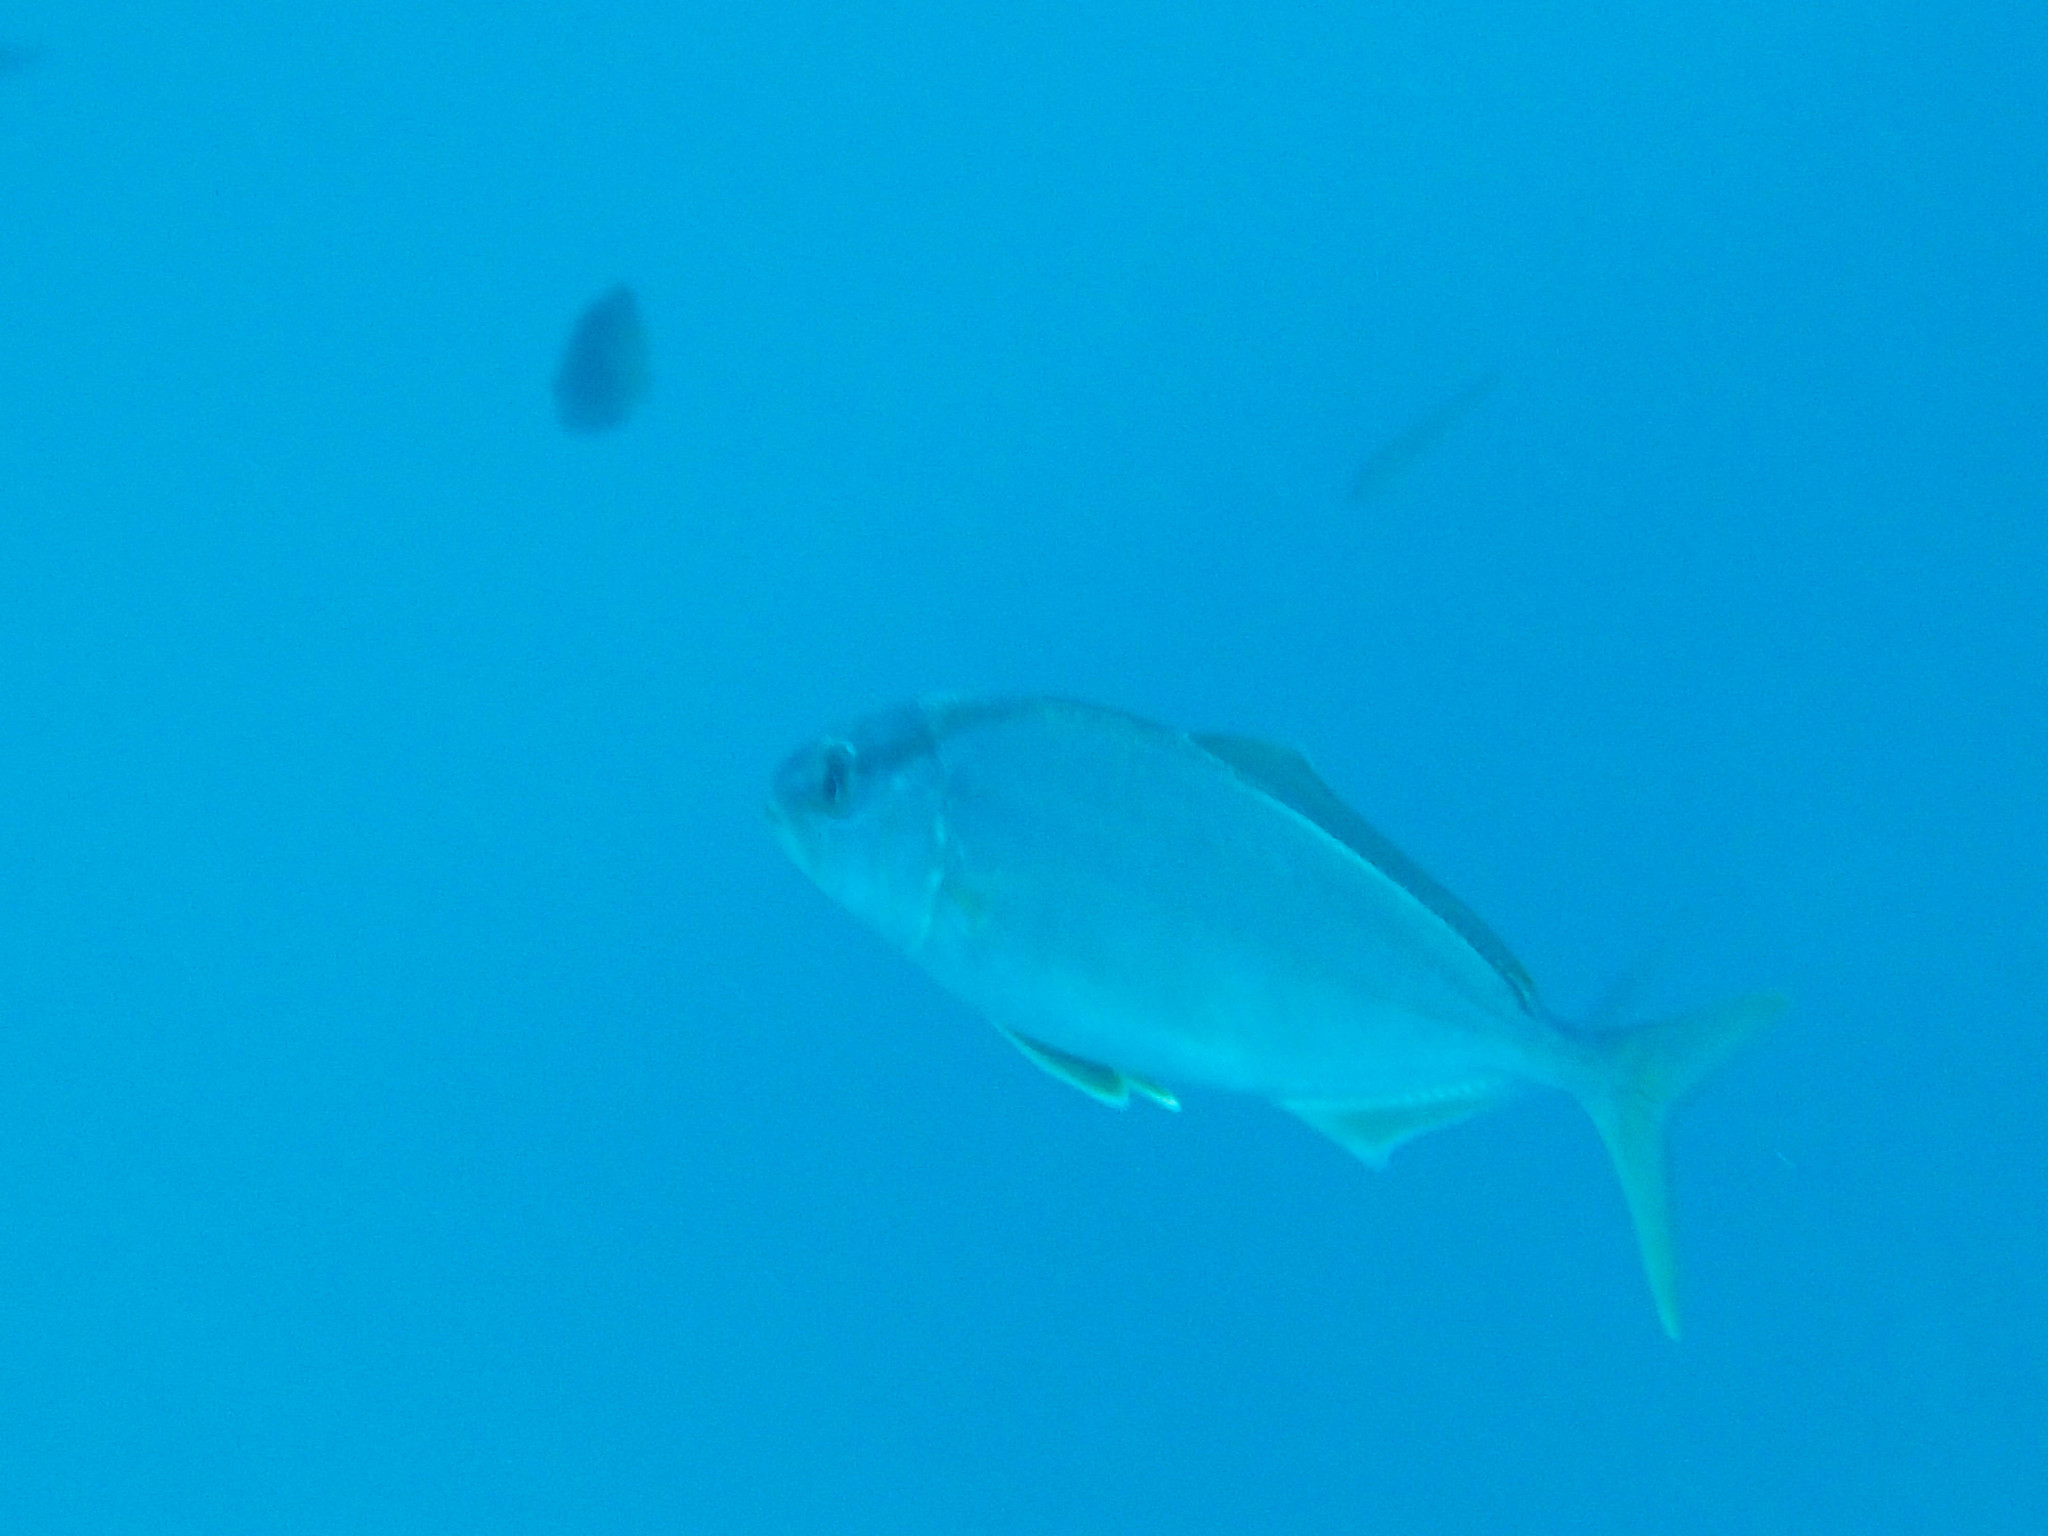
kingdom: Animalia
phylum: Chordata
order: Perciformes
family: Carangidae
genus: Seriola
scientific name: Seriola dumerili
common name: Greater amberjack
